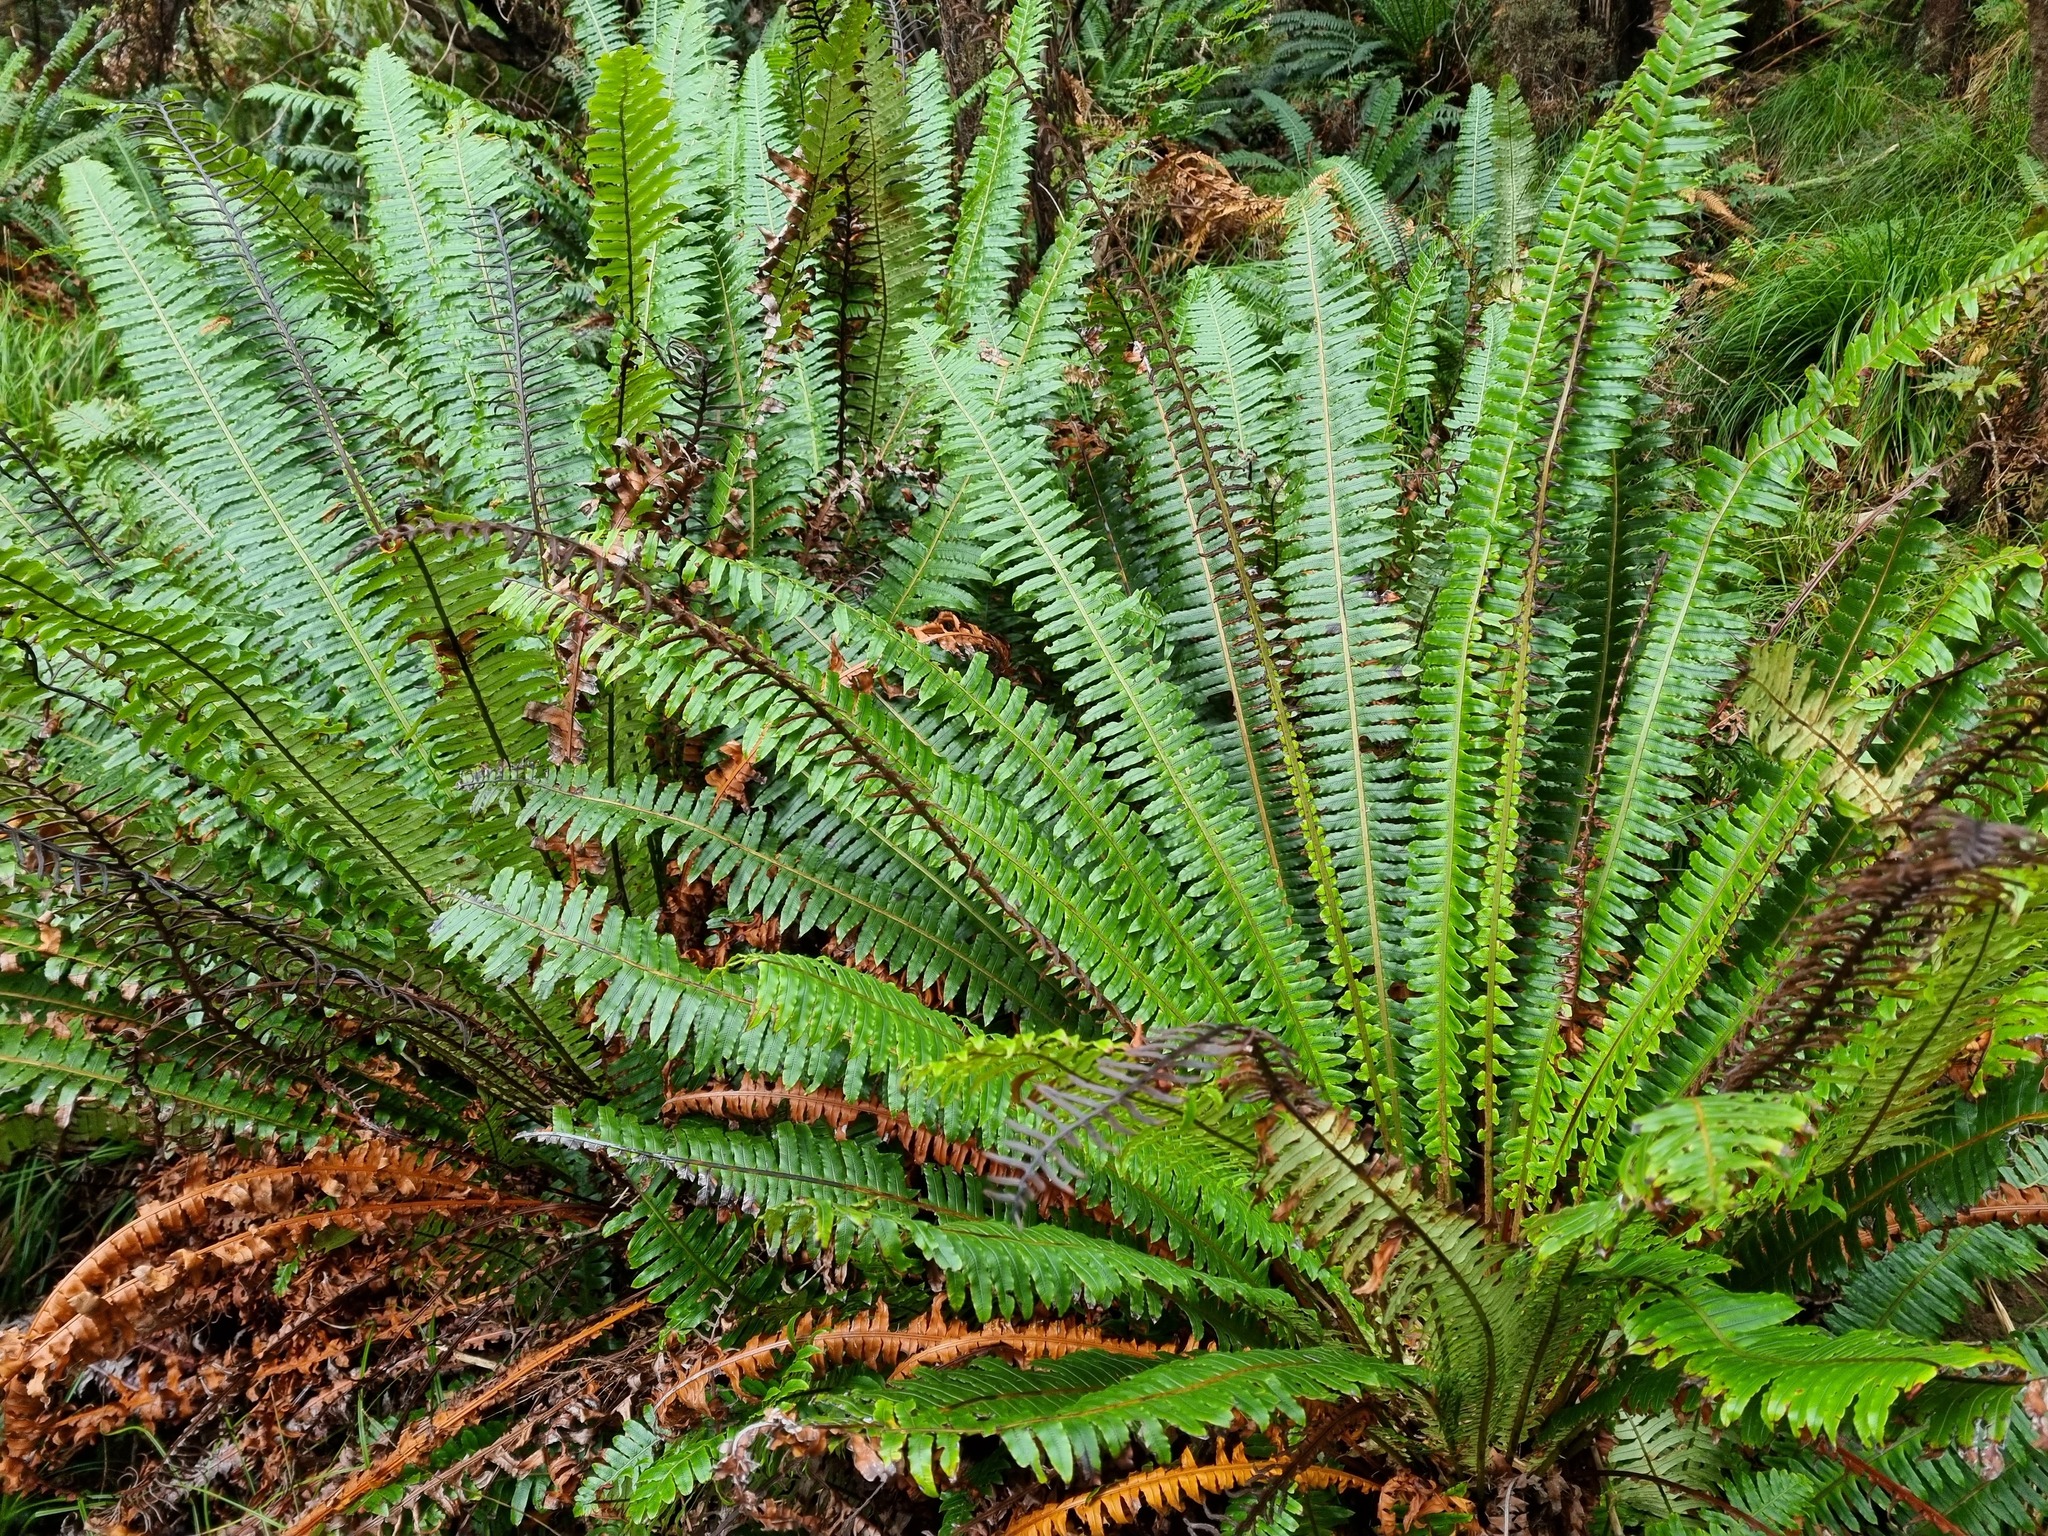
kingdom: Plantae
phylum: Tracheophyta
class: Polypodiopsida
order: Polypodiales
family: Blechnaceae
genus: Lomaria
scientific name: Lomaria discolor
